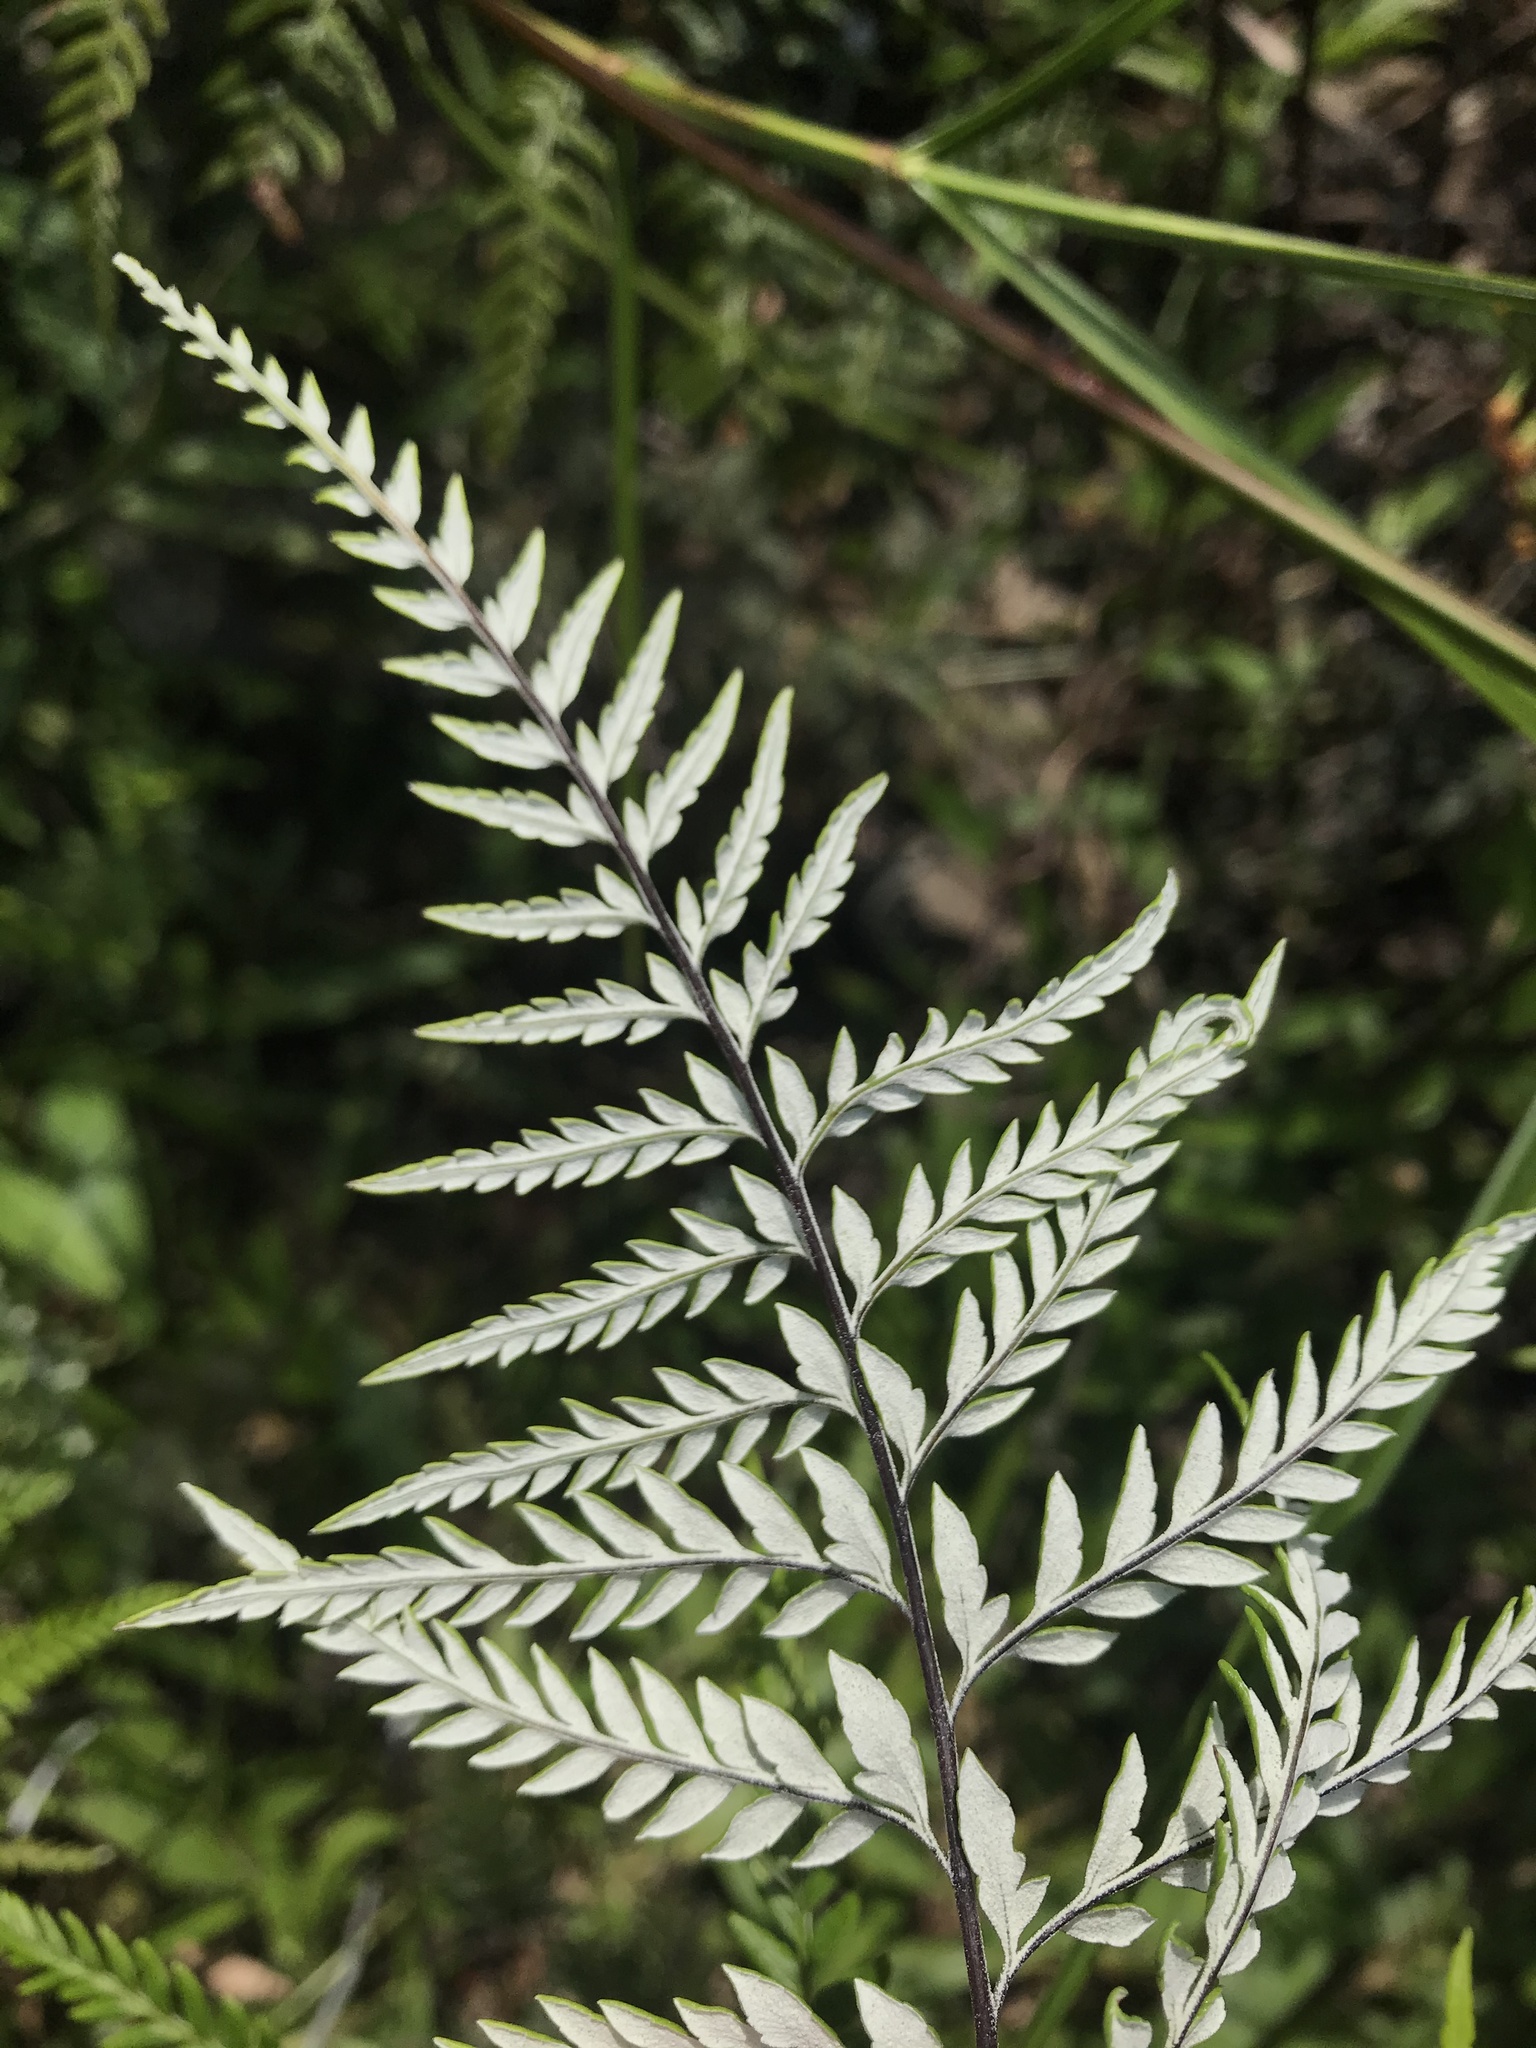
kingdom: Plantae
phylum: Tracheophyta
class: Polypodiopsida
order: Polypodiales
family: Pteridaceae
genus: Pityrogramma
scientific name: Pityrogramma calomelanos
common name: Dixie silverback fern
